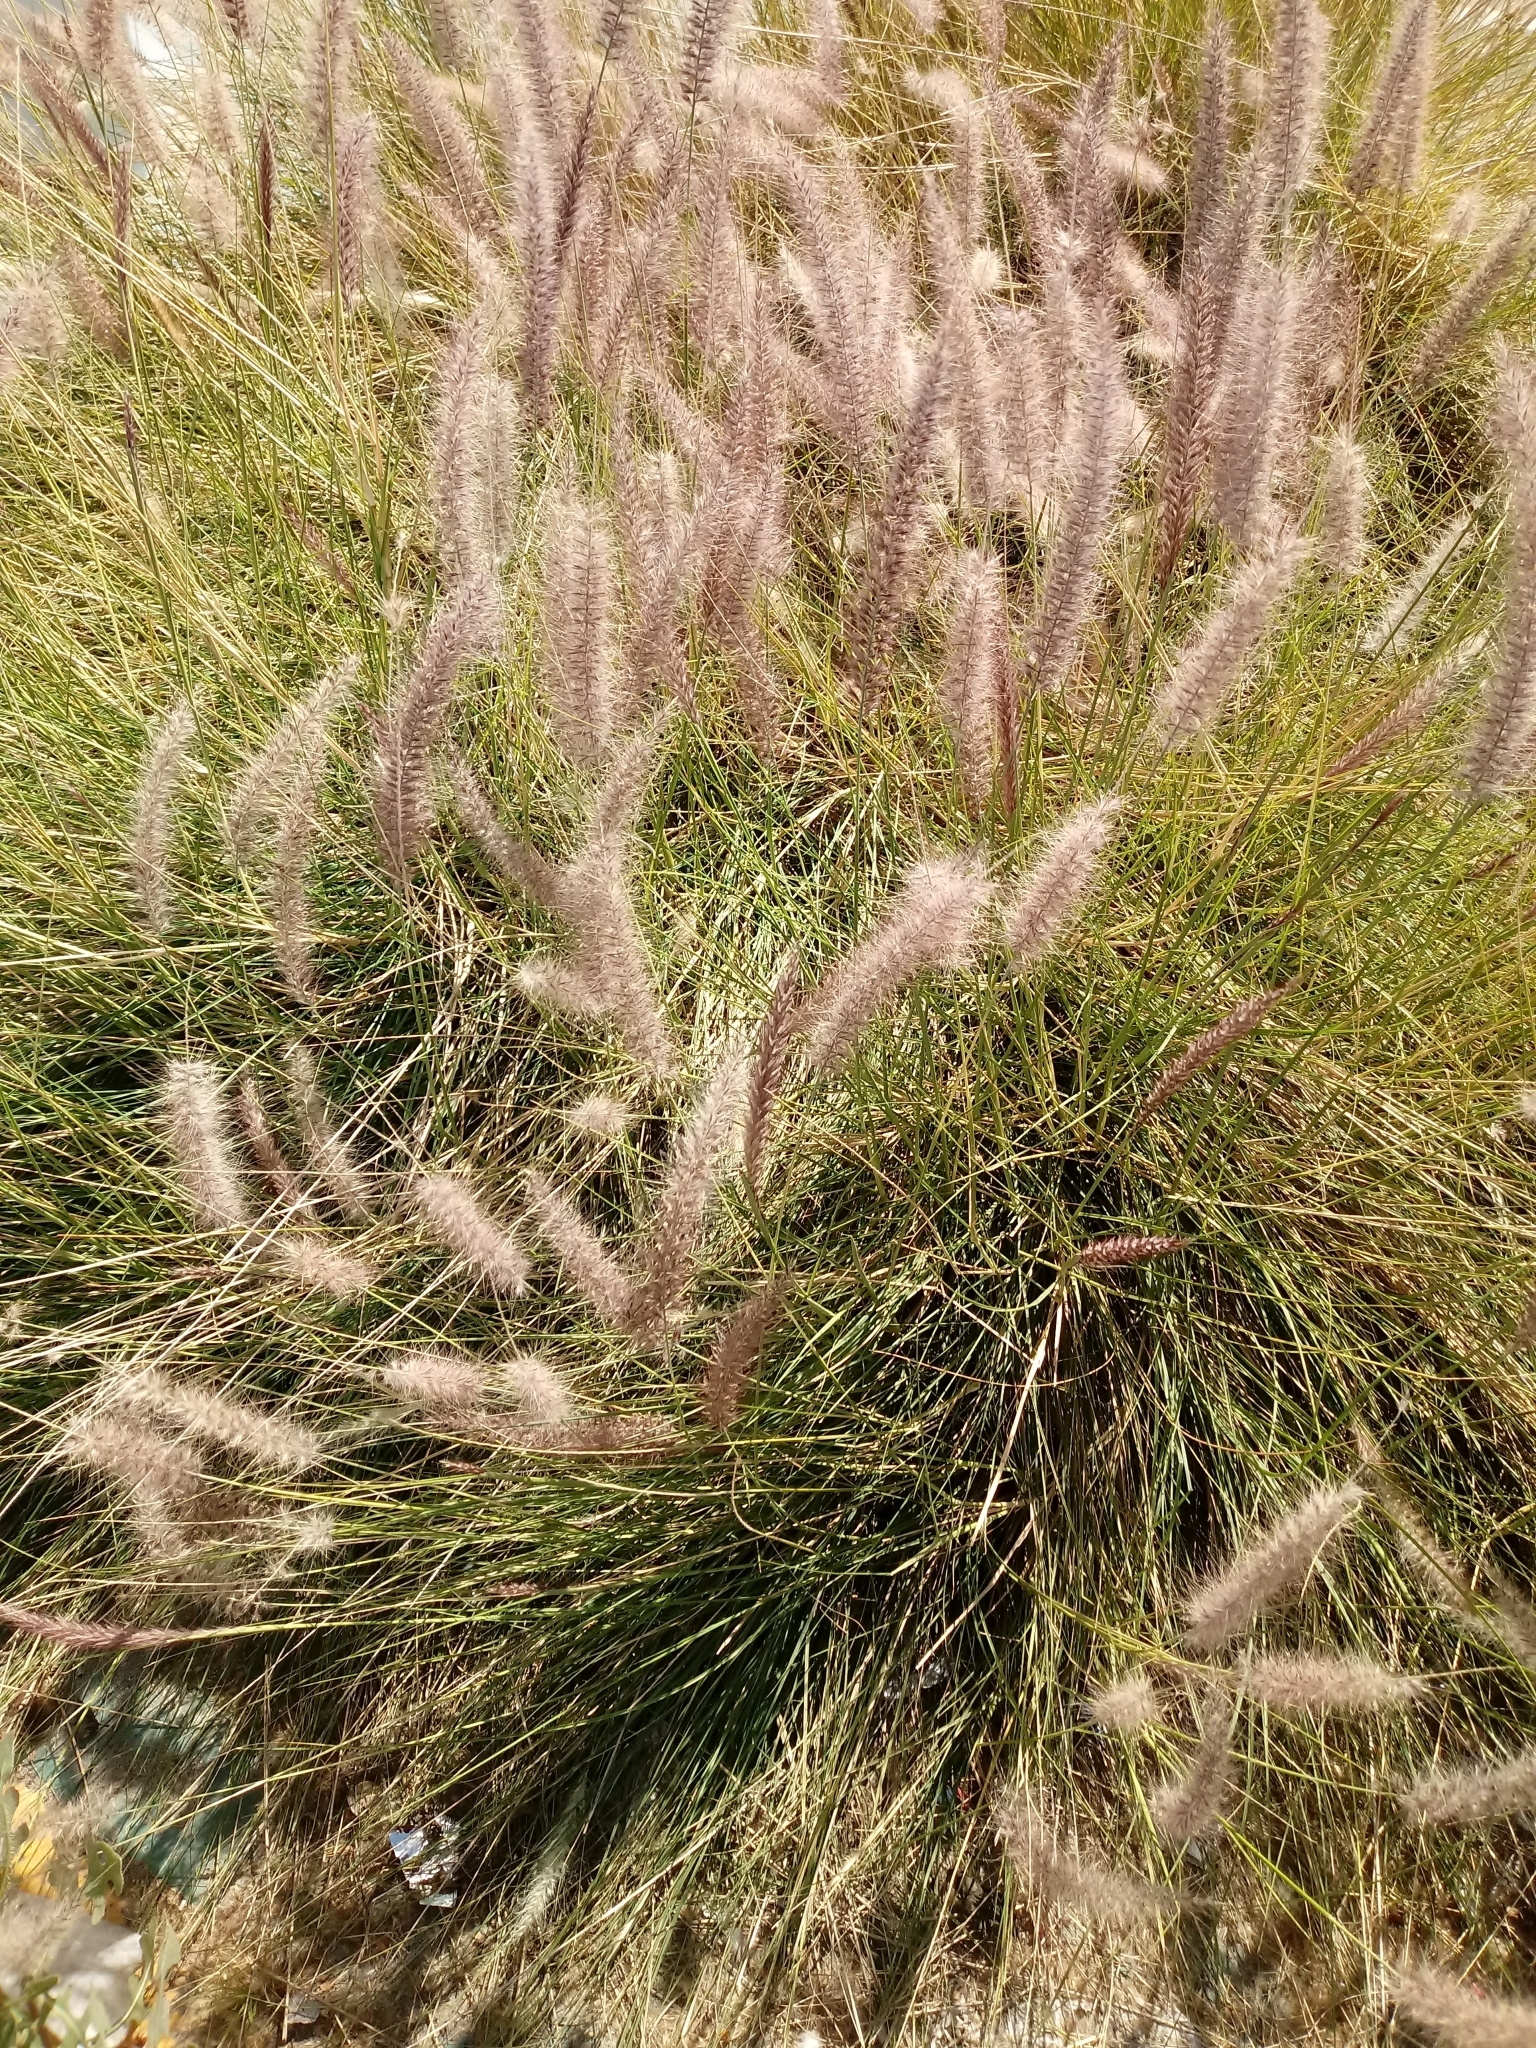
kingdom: Plantae
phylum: Tracheophyta
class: Liliopsida
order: Poales
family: Poaceae
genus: Cenchrus
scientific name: Cenchrus setaceus
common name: Crimson fountaingrass
